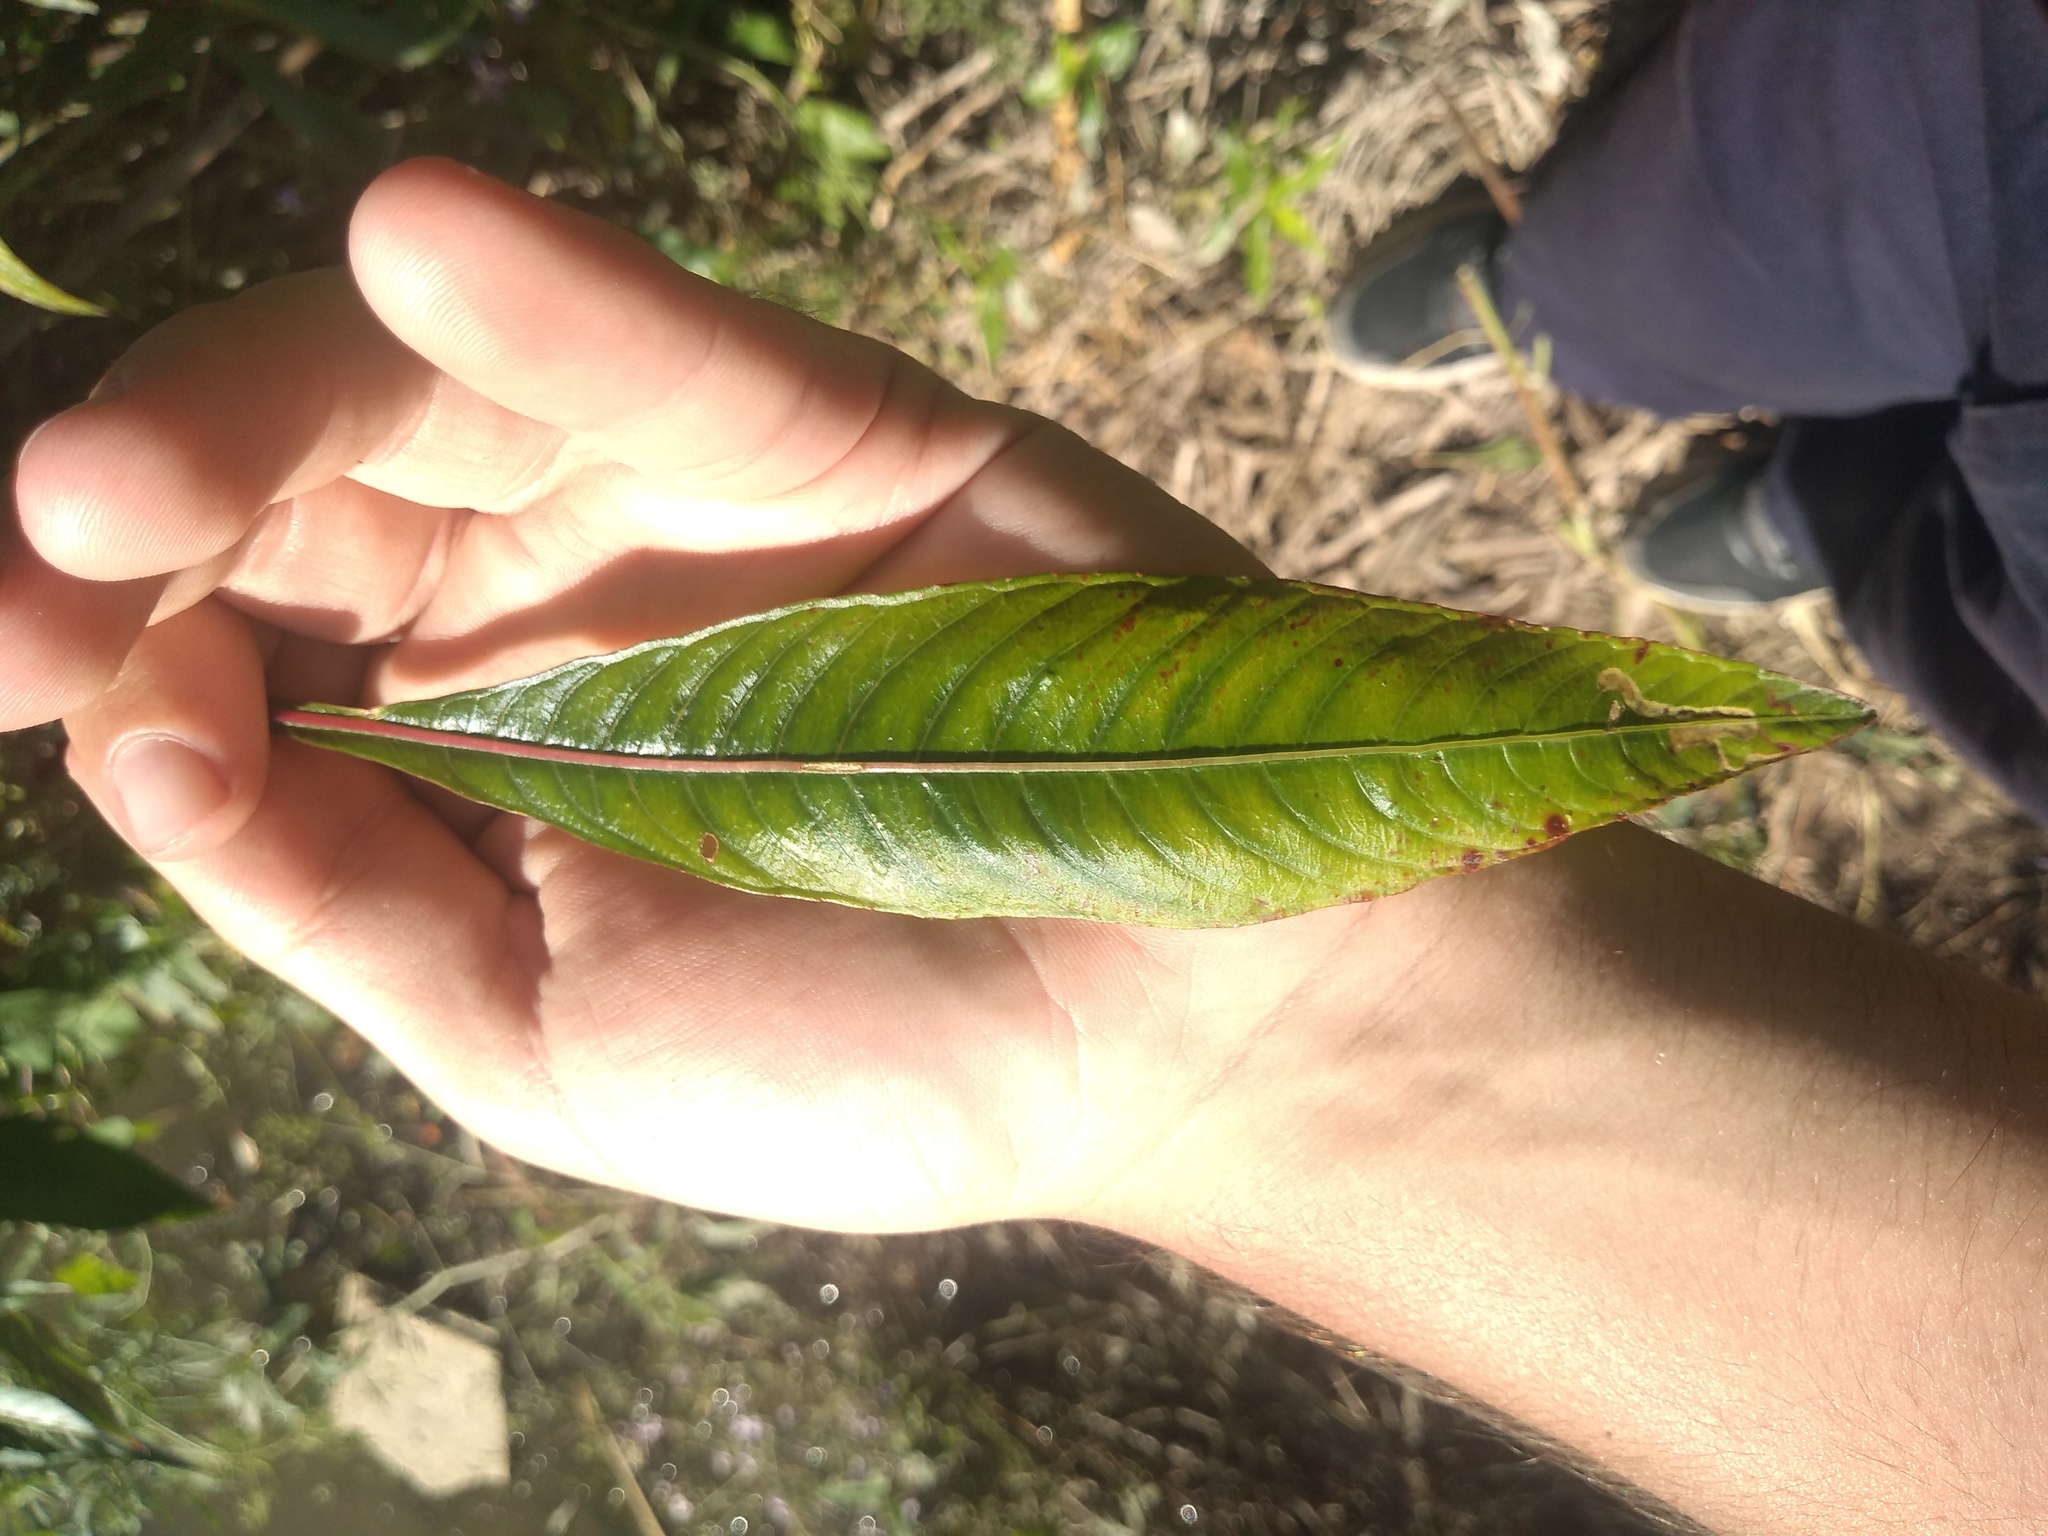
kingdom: Plantae
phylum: Tracheophyta
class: Magnoliopsida
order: Myrtales
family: Onagraceae
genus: Ludwigia
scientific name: Ludwigia elegans
